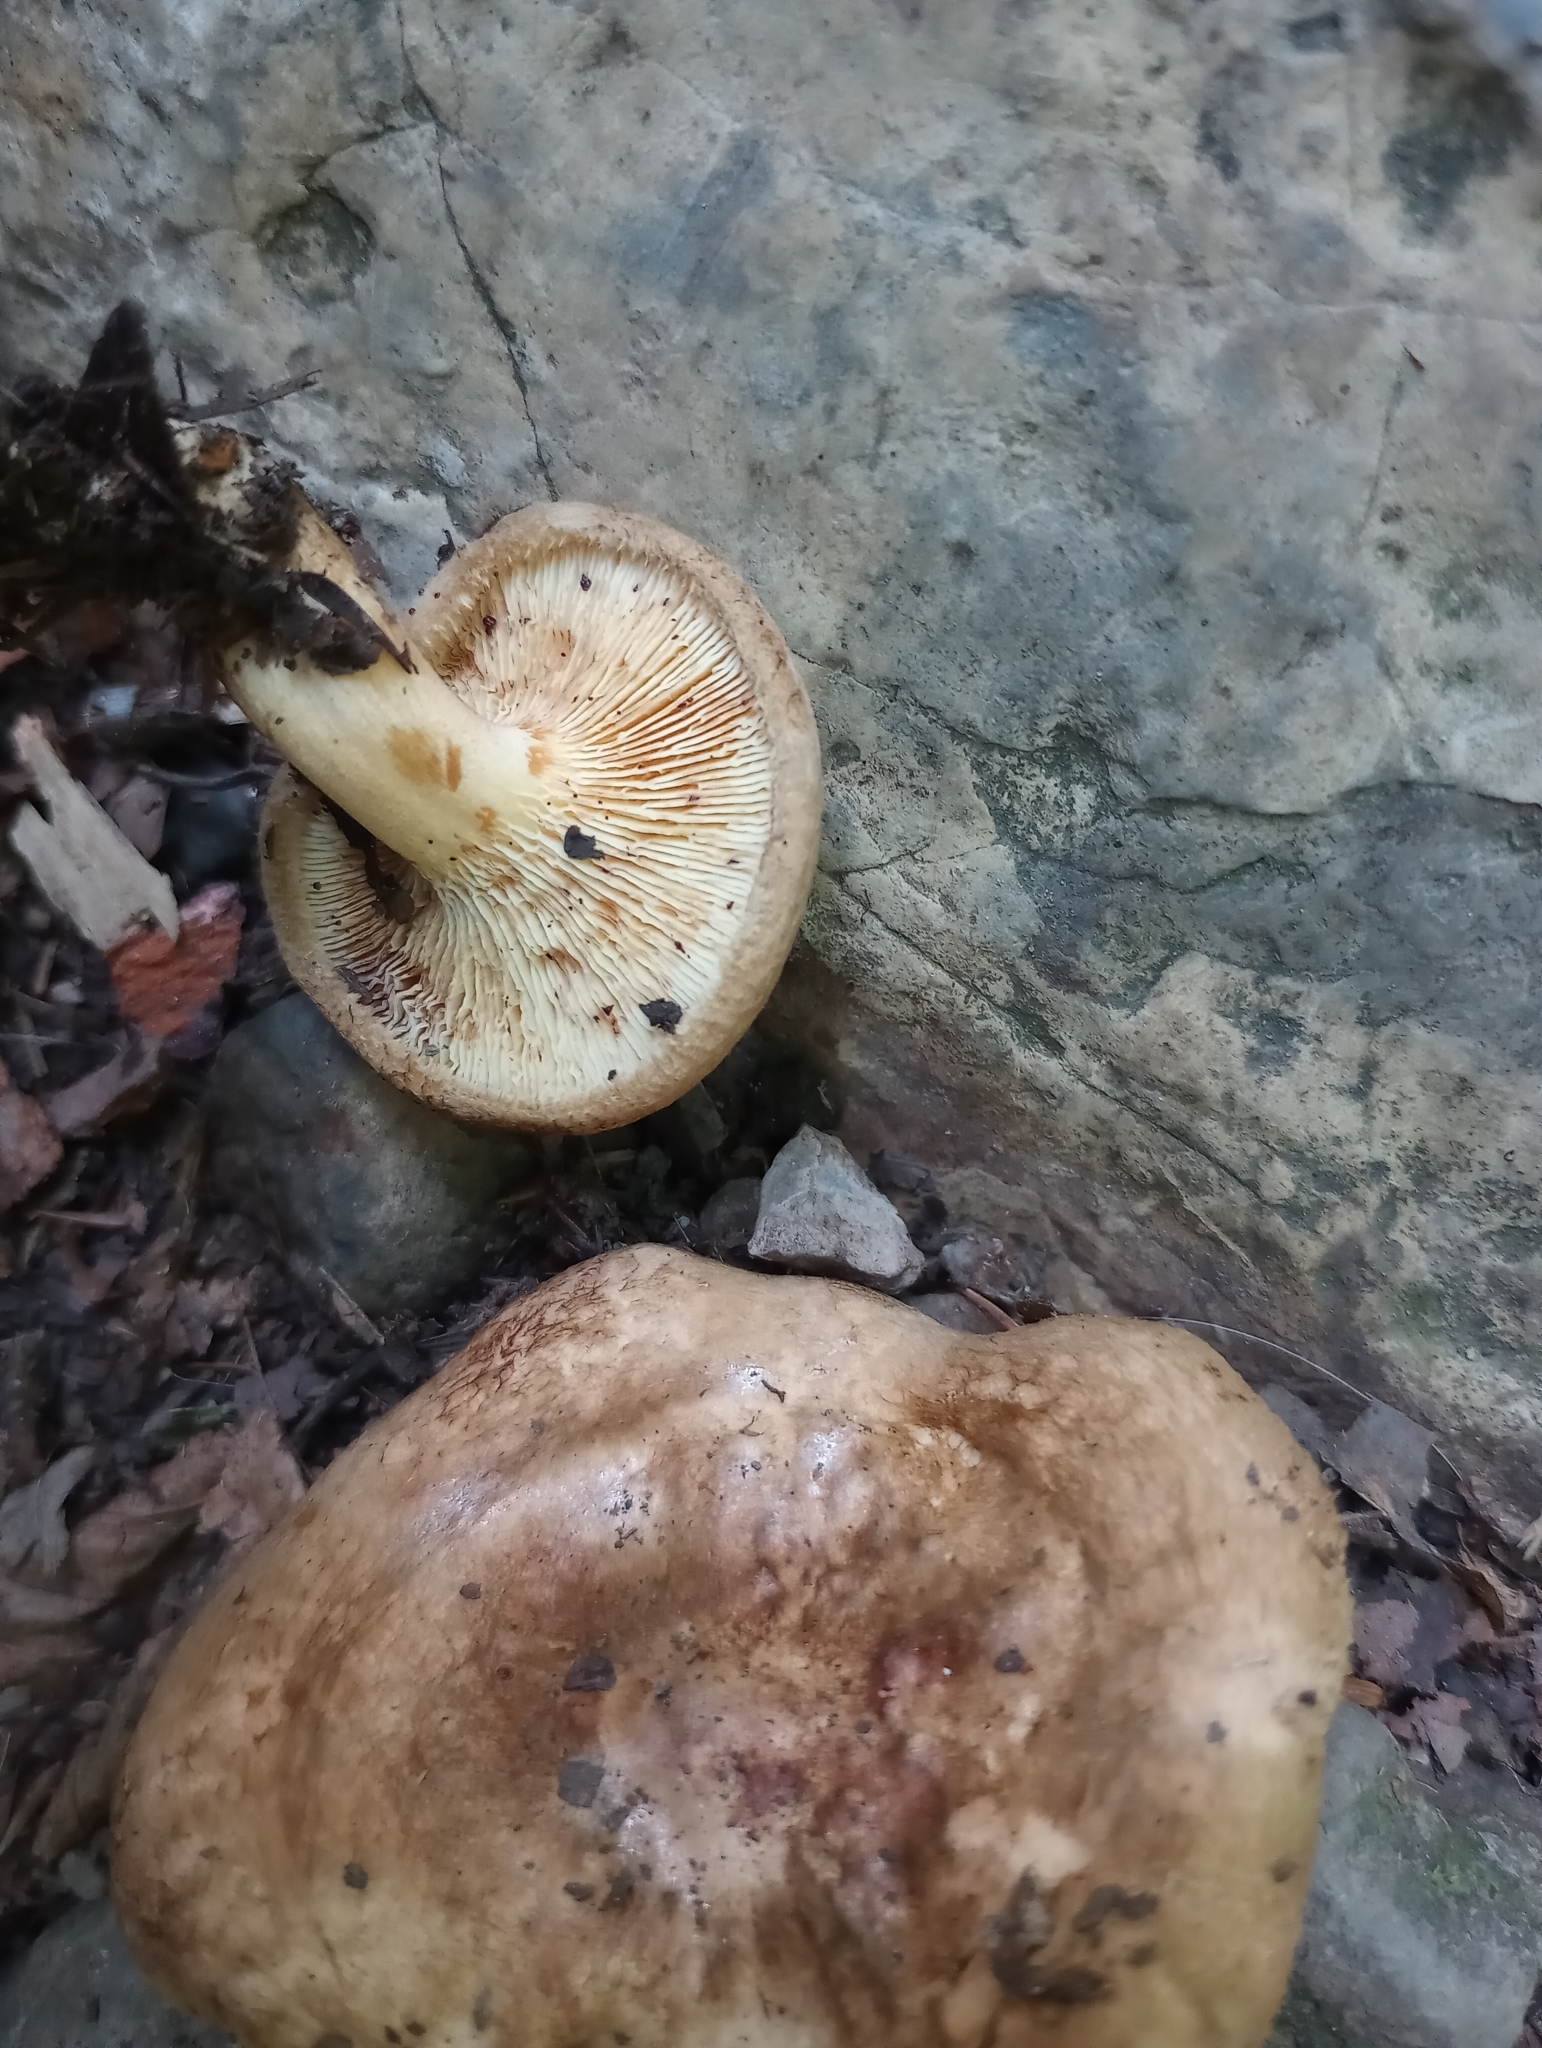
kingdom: Fungi
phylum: Basidiomycota
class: Agaricomycetes
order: Boletales
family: Paxillaceae
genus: Paxillus
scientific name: Paxillus involutus
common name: Brown roll rim
